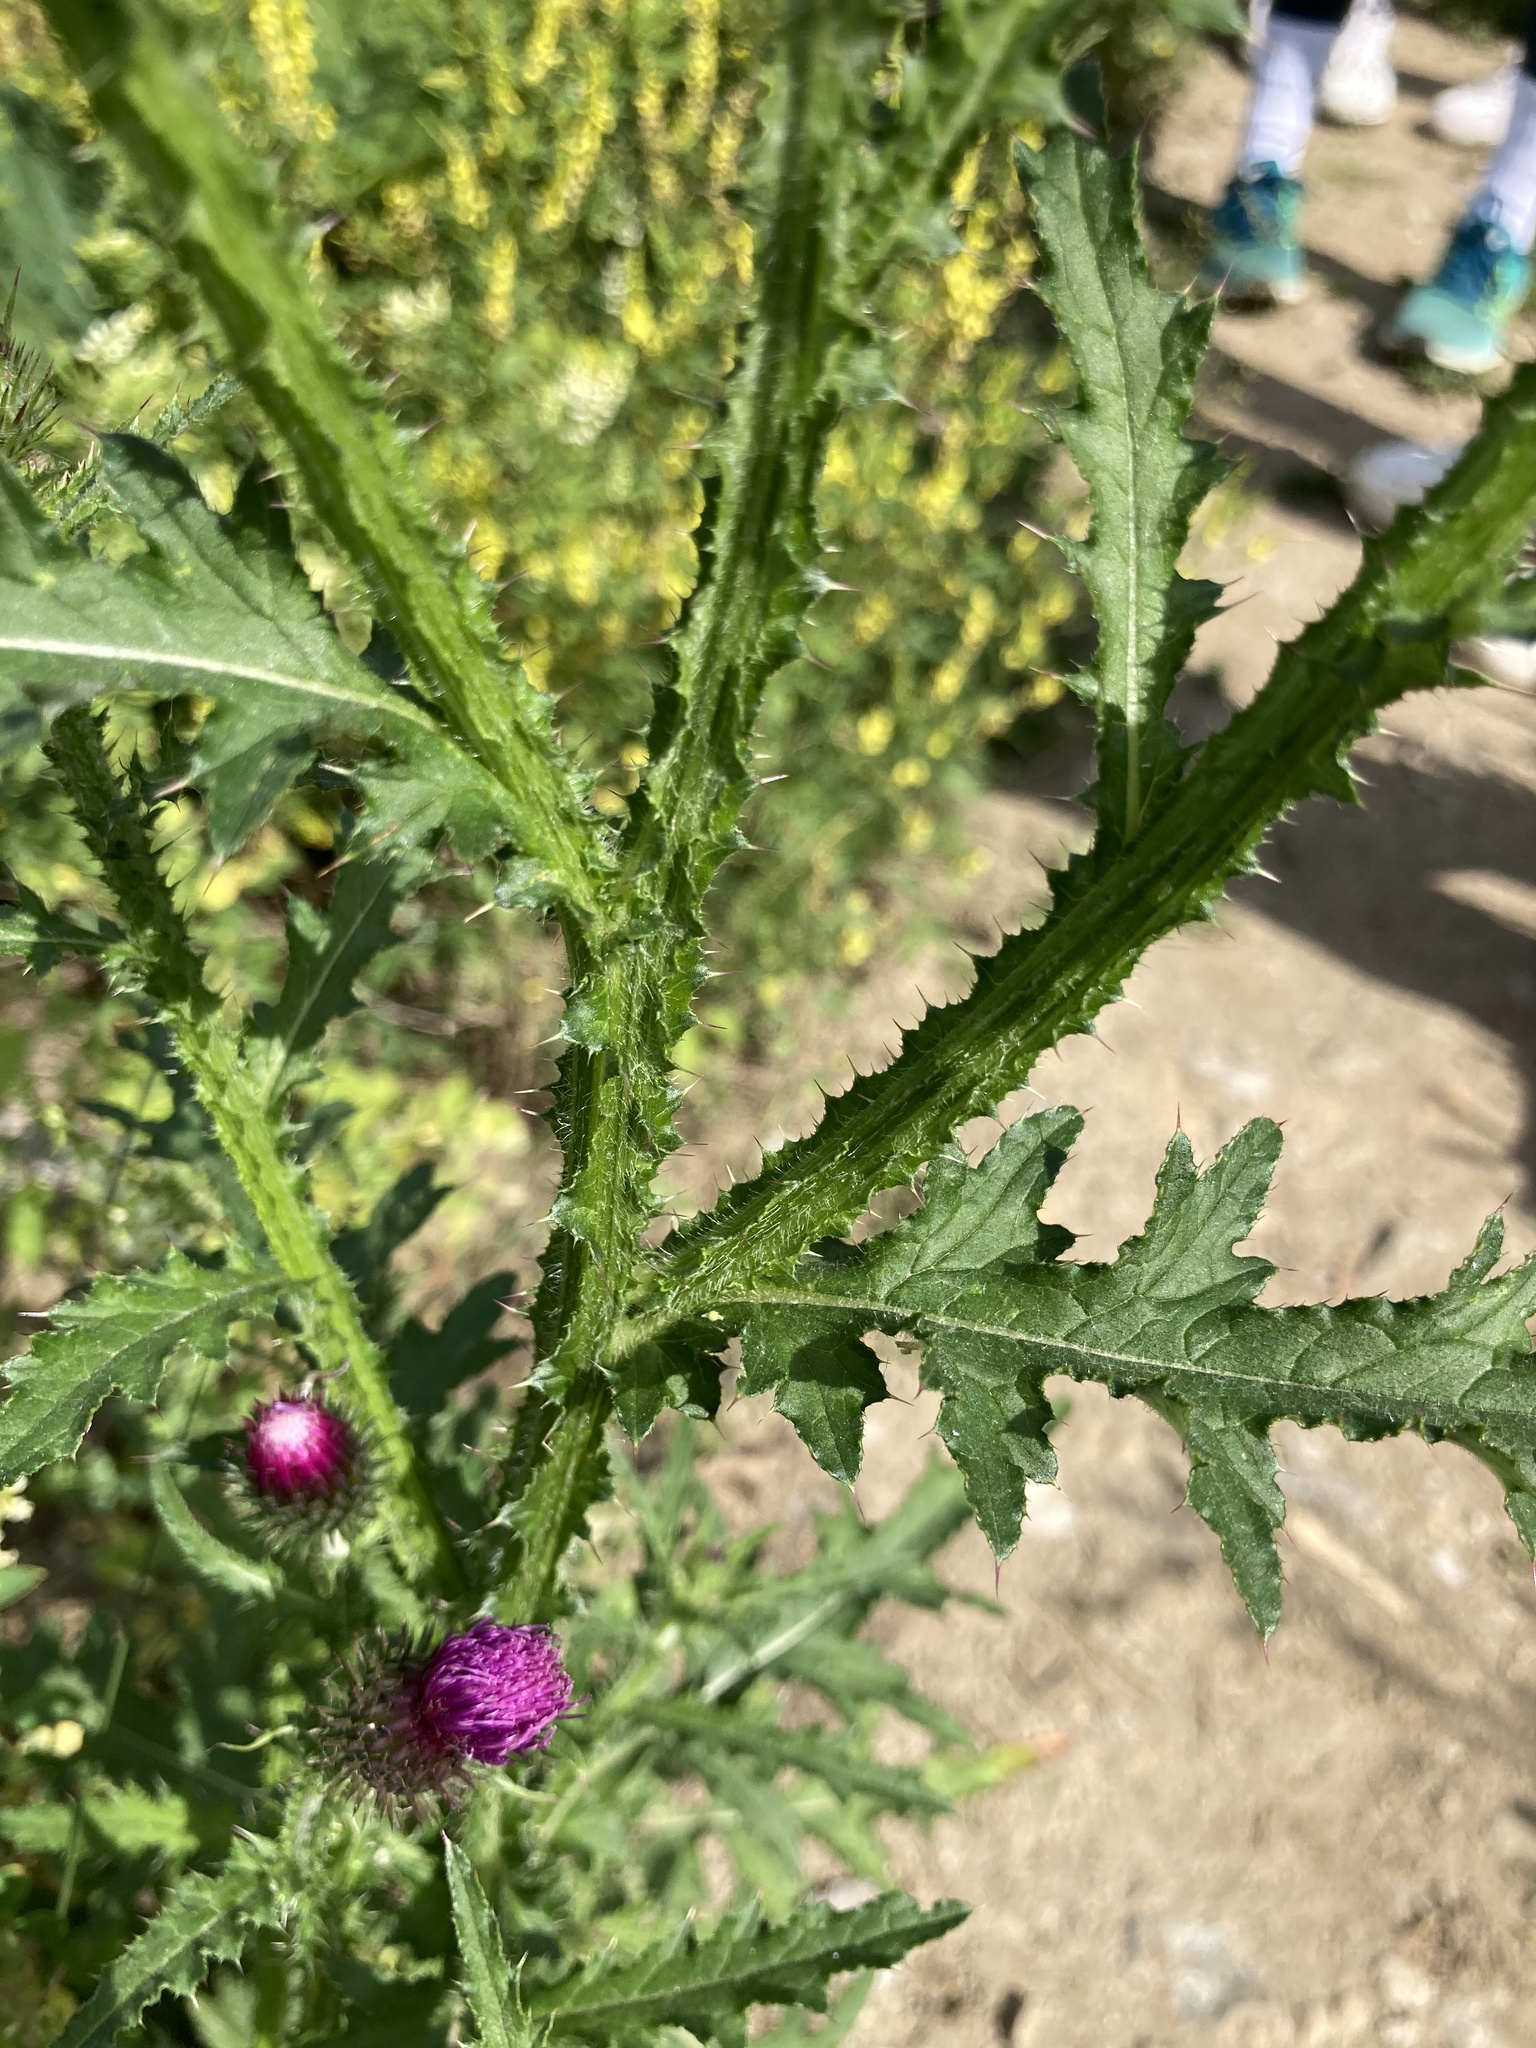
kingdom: Plantae
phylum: Tracheophyta
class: Magnoliopsida
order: Asterales
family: Asteraceae
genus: Carduus
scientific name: Carduus crispus
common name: Welted thistle
